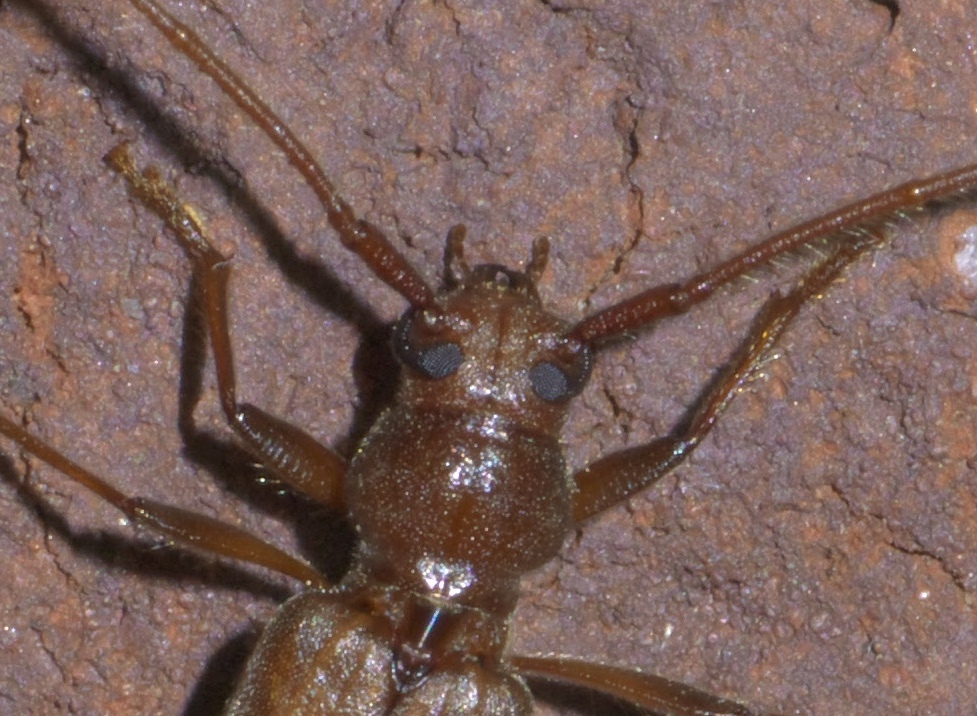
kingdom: Animalia
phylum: Arthropoda
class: Insecta
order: Coleoptera
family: Cerambycidae
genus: Oeme
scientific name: Oeme rigida
